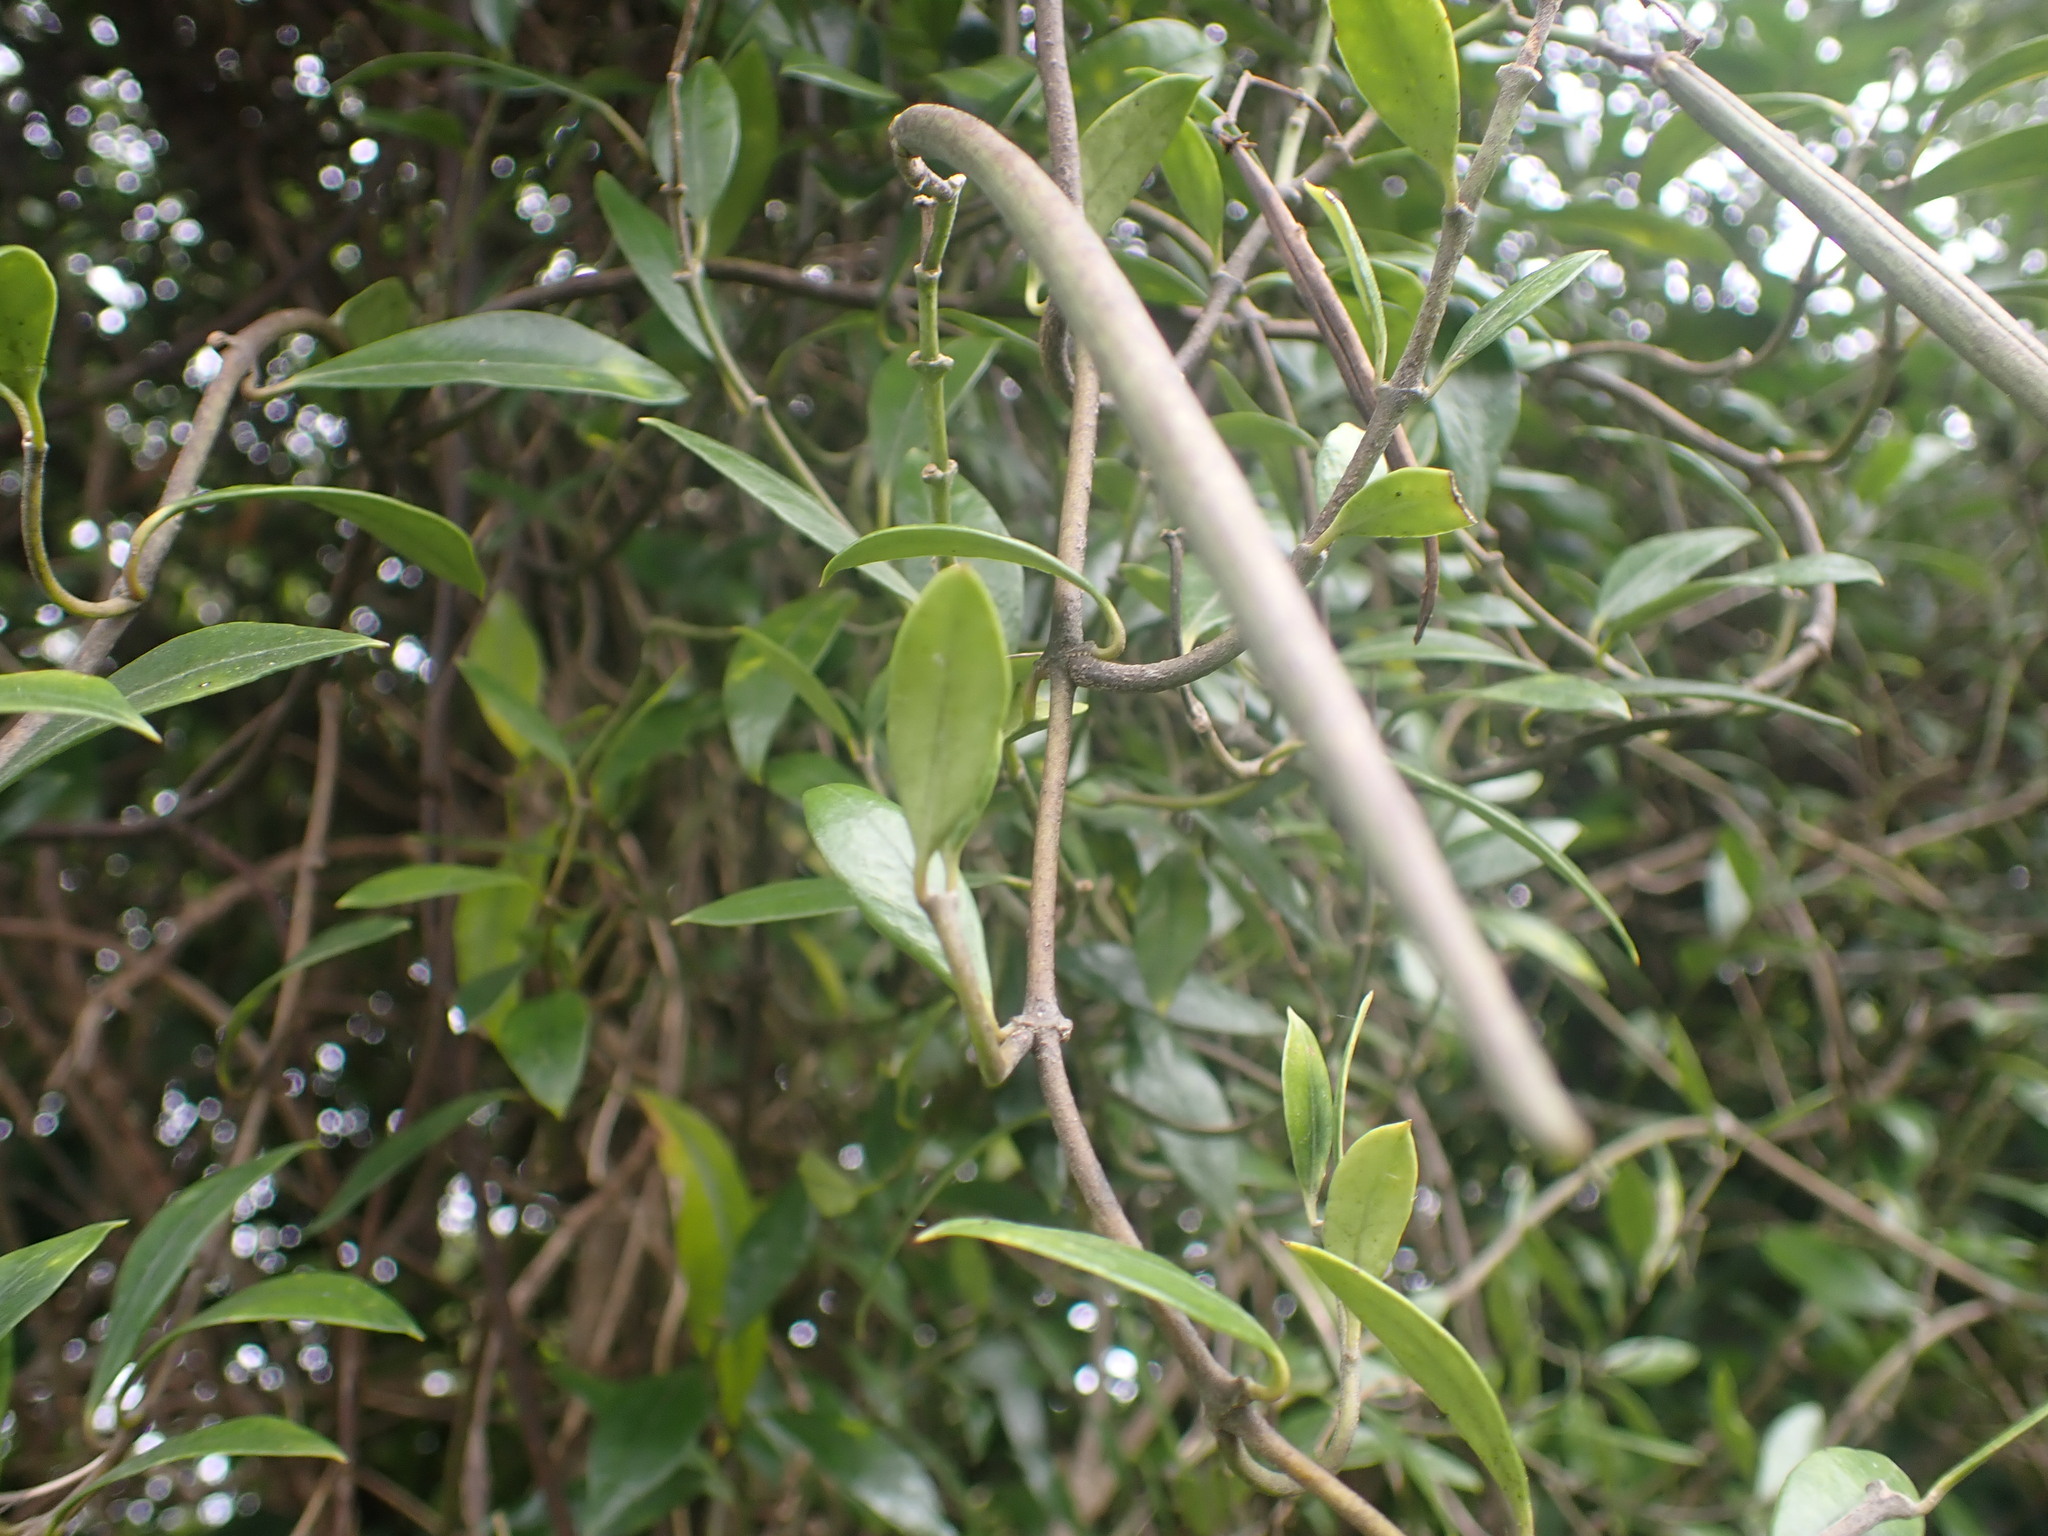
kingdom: Plantae
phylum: Tracheophyta
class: Magnoliopsida
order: Gentianales
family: Apocynaceae
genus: Parsonsia
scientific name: Parsonsia heterophylla
